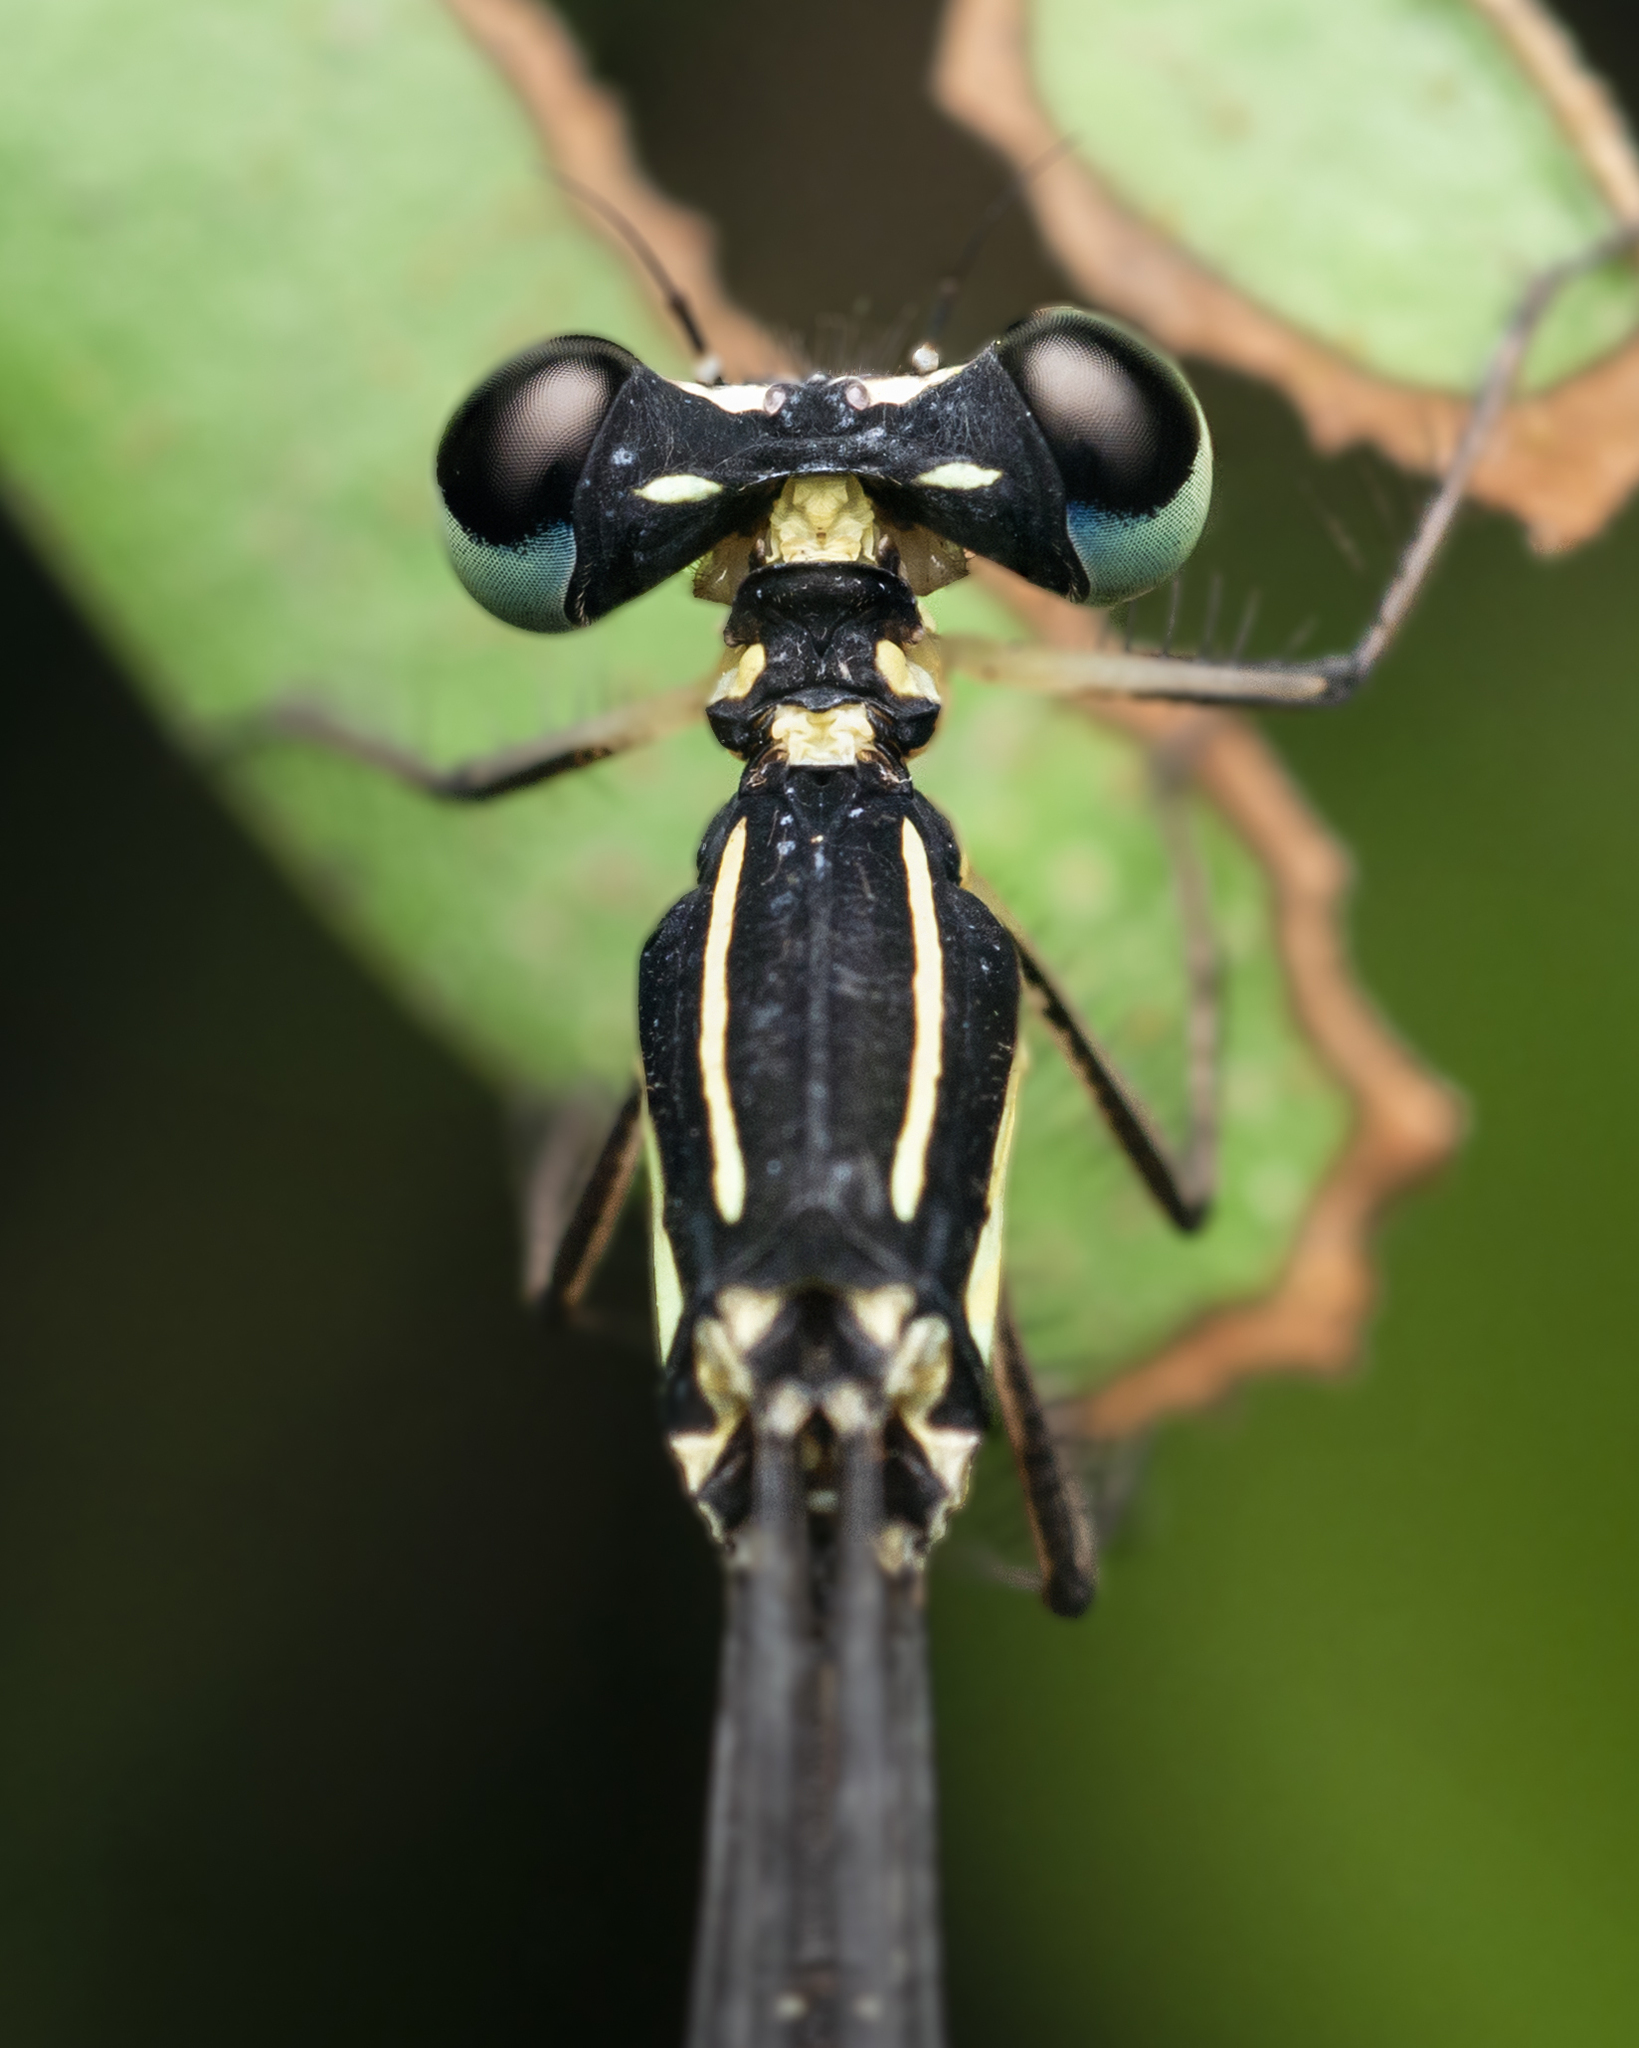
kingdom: Animalia
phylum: Arthropoda
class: Insecta
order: Odonata
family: Platycnemididae
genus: Coeliccia
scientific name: Coeliccia cyanomelas
